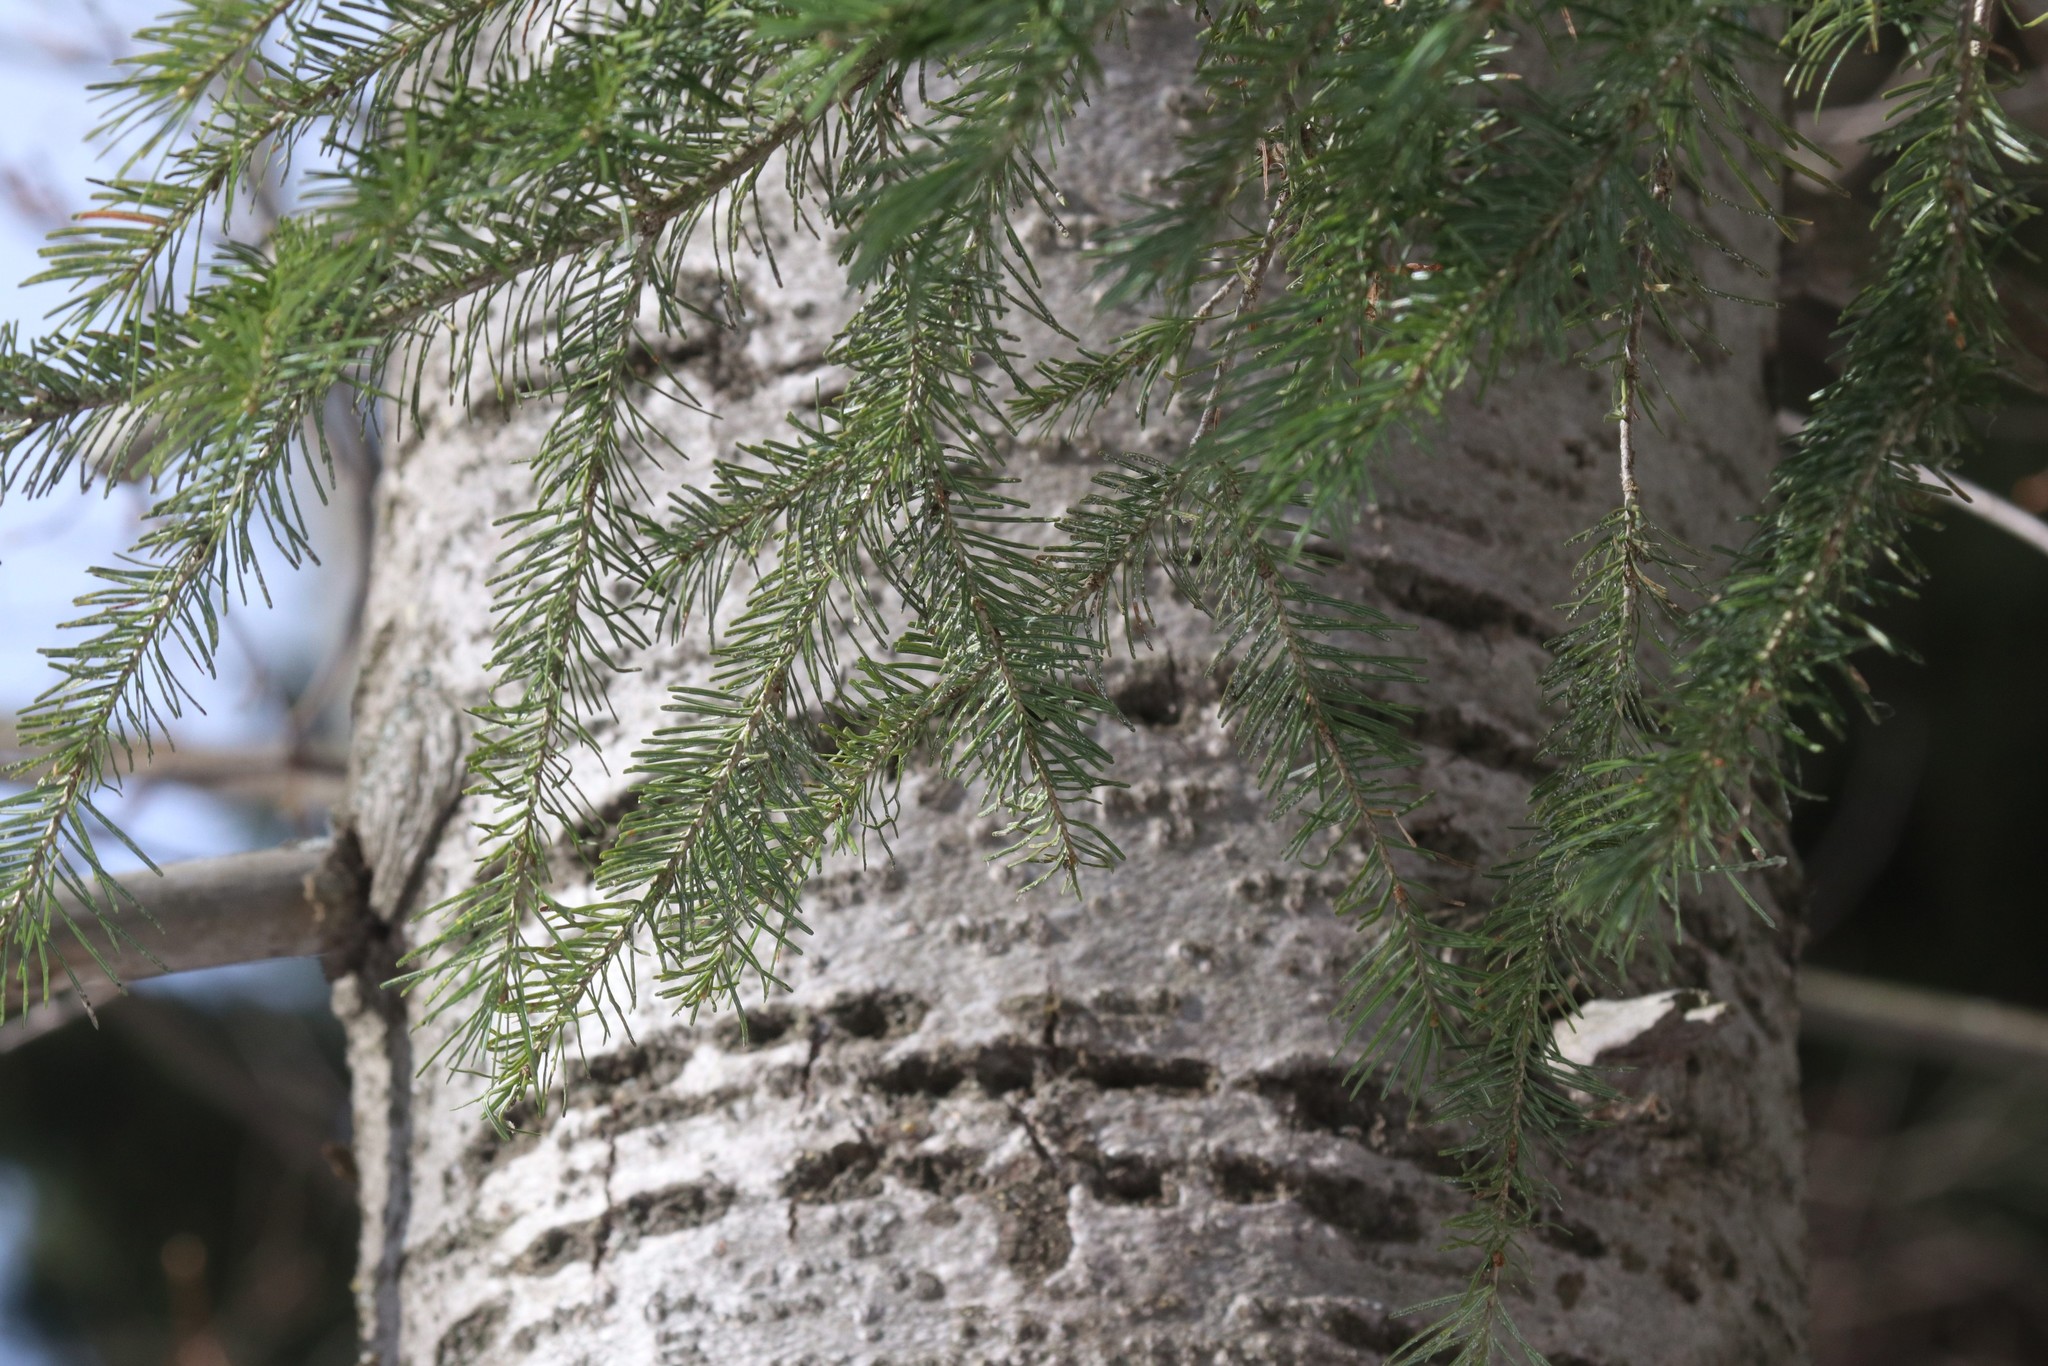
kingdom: Plantae
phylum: Tracheophyta
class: Pinopsida
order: Pinales
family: Pinaceae
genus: Abies
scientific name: Abies sibirica
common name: Siberian fir
